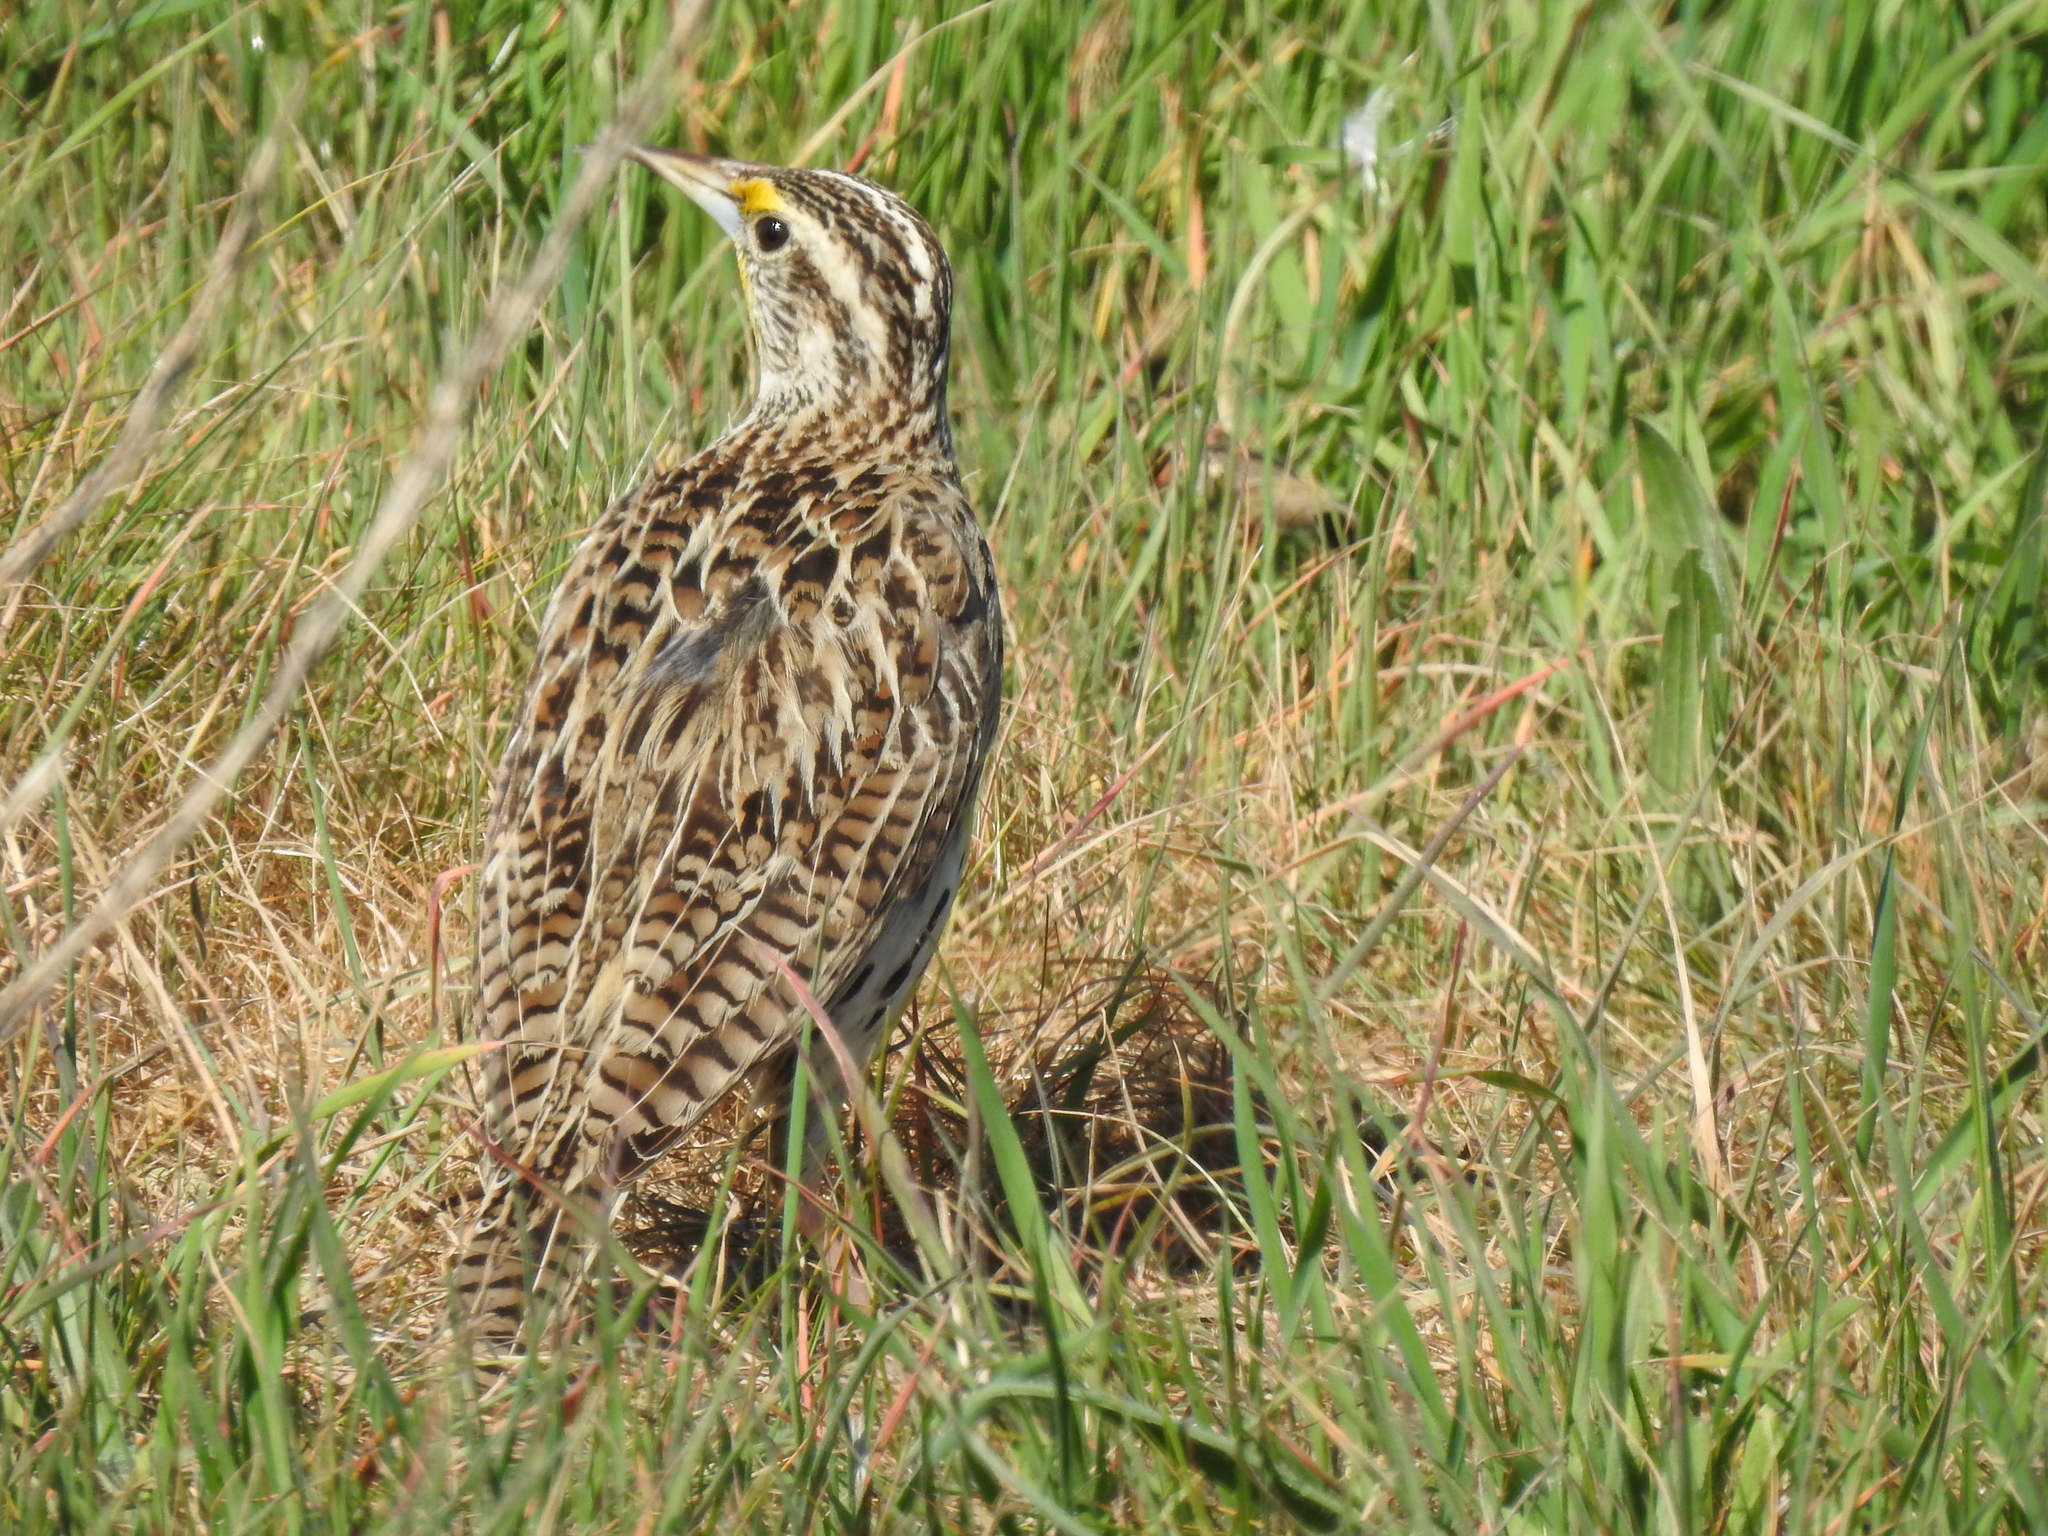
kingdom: Animalia
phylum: Chordata
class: Aves
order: Passeriformes
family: Icteridae
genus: Sturnella
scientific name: Sturnella neglecta
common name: Western meadowlark
